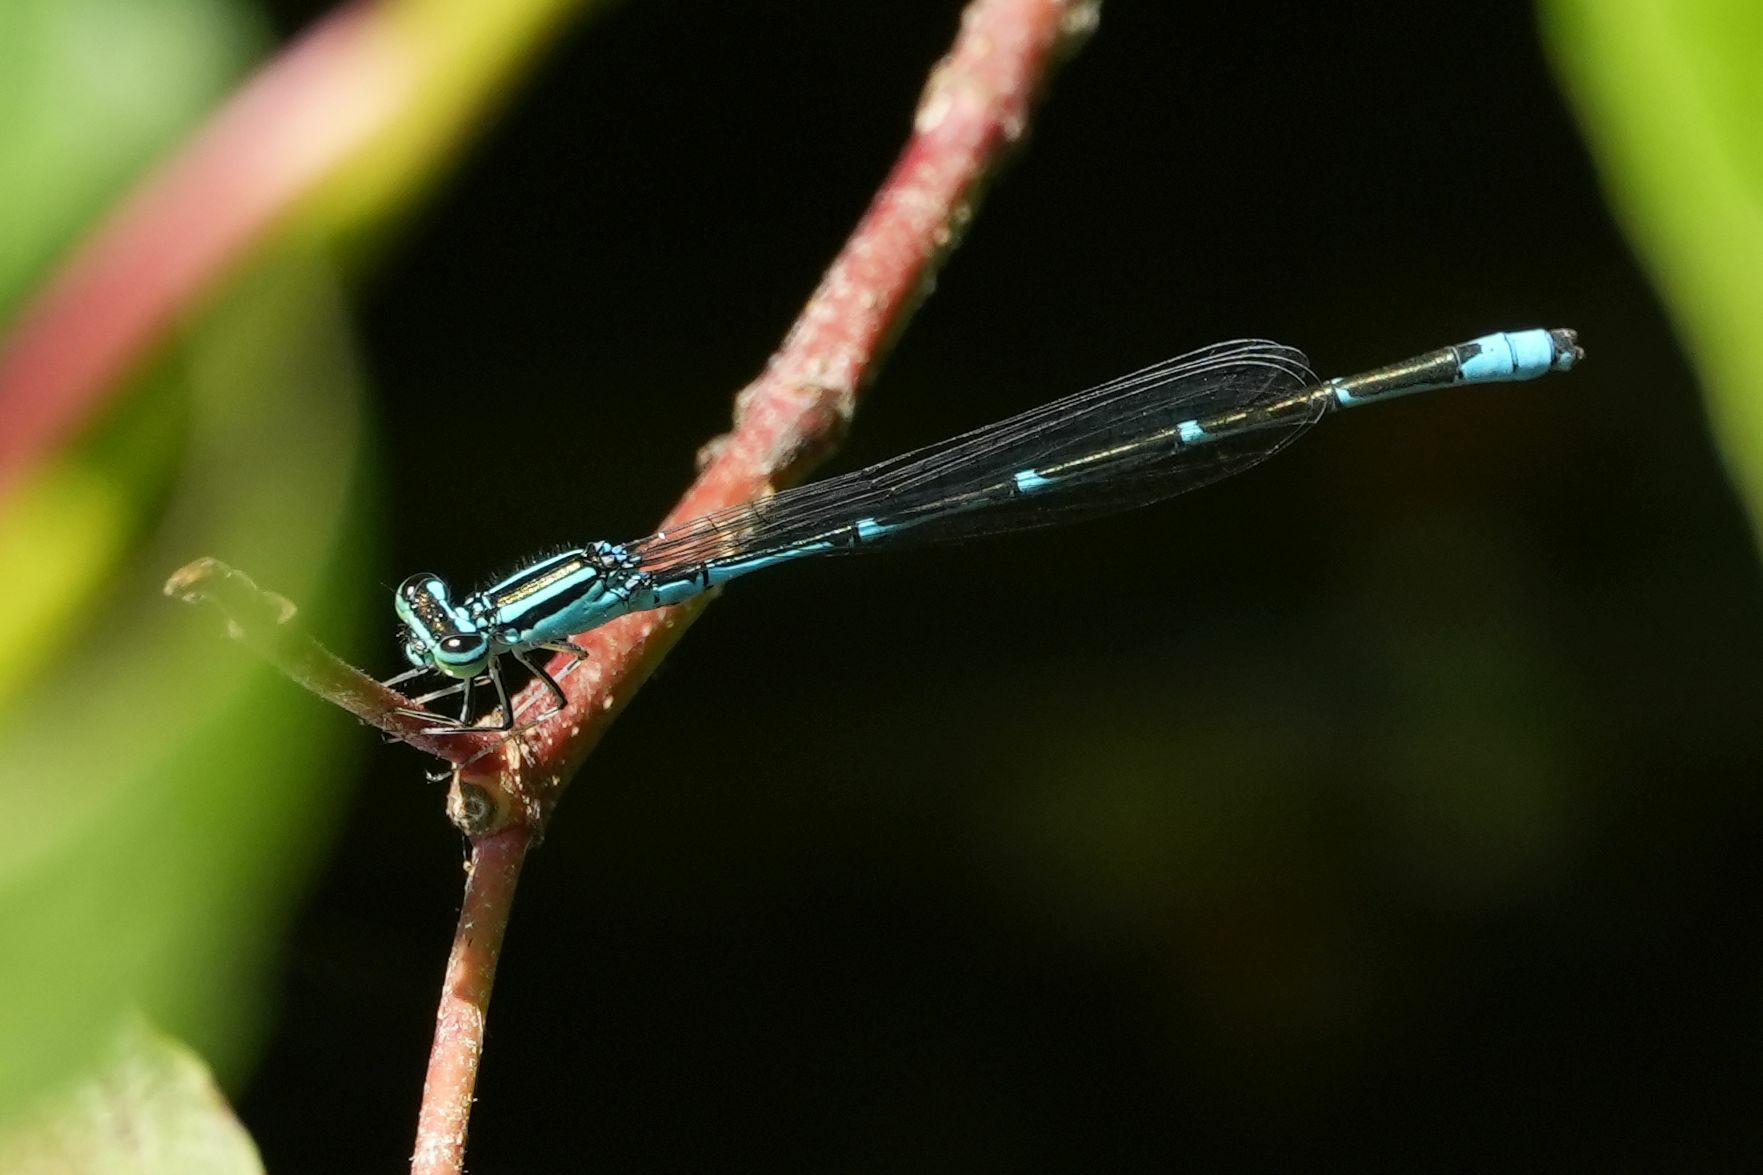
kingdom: Animalia
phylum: Arthropoda
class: Insecta
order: Odonata
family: Coenagrionidae
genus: Enallagma
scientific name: Enallagma exsulans
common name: Stream bluet
